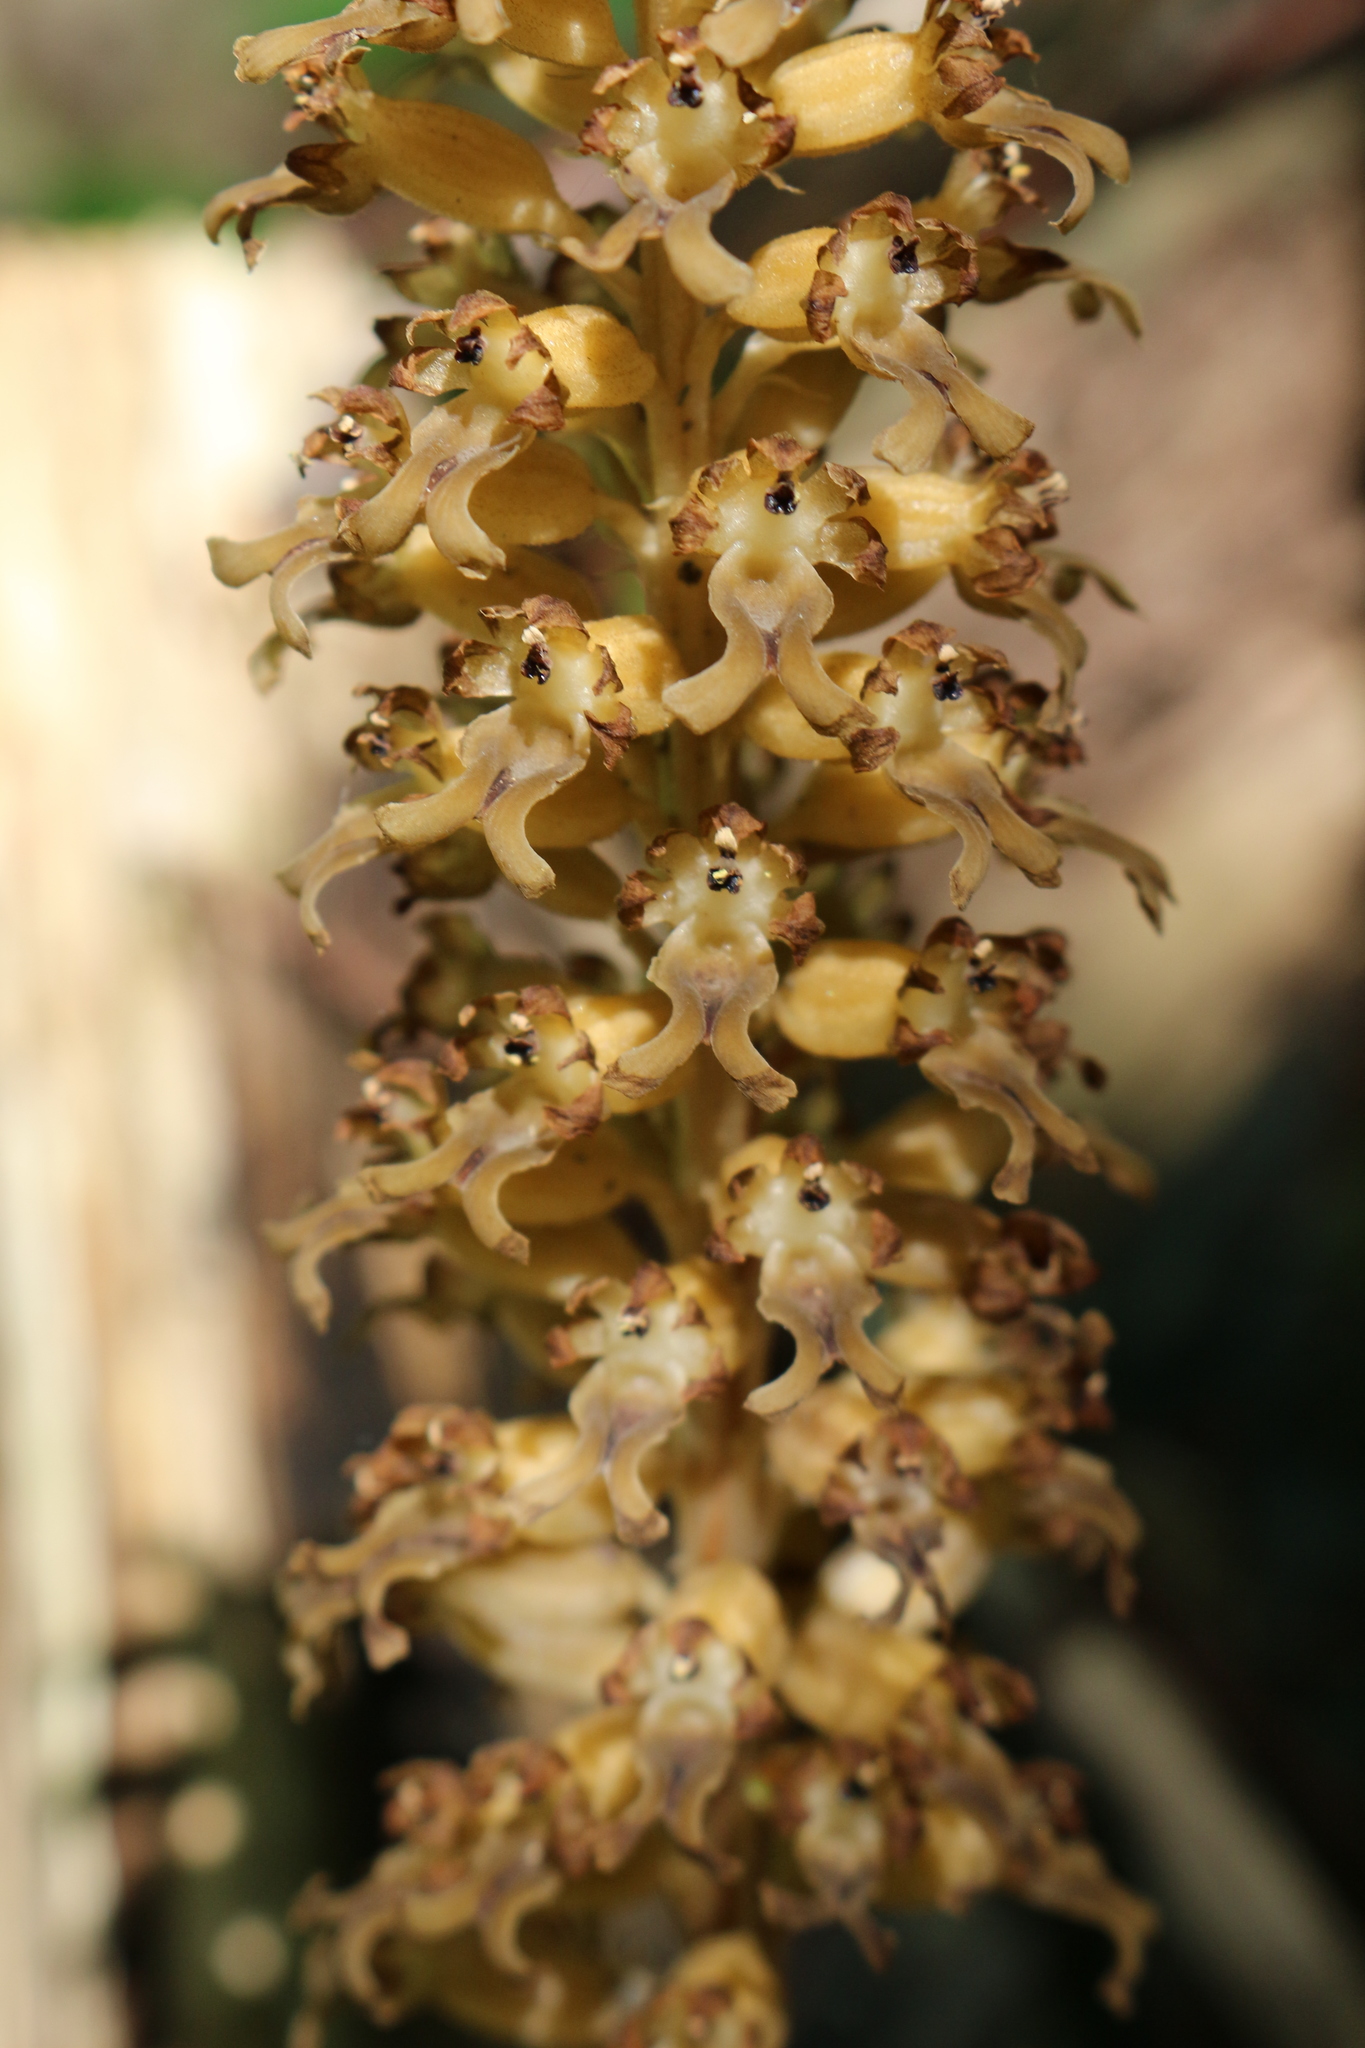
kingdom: Plantae
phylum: Tracheophyta
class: Liliopsida
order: Asparagales
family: Orchidaceae
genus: Neottia
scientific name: Neottia nidus-avis
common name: Bird's-nest orchid
